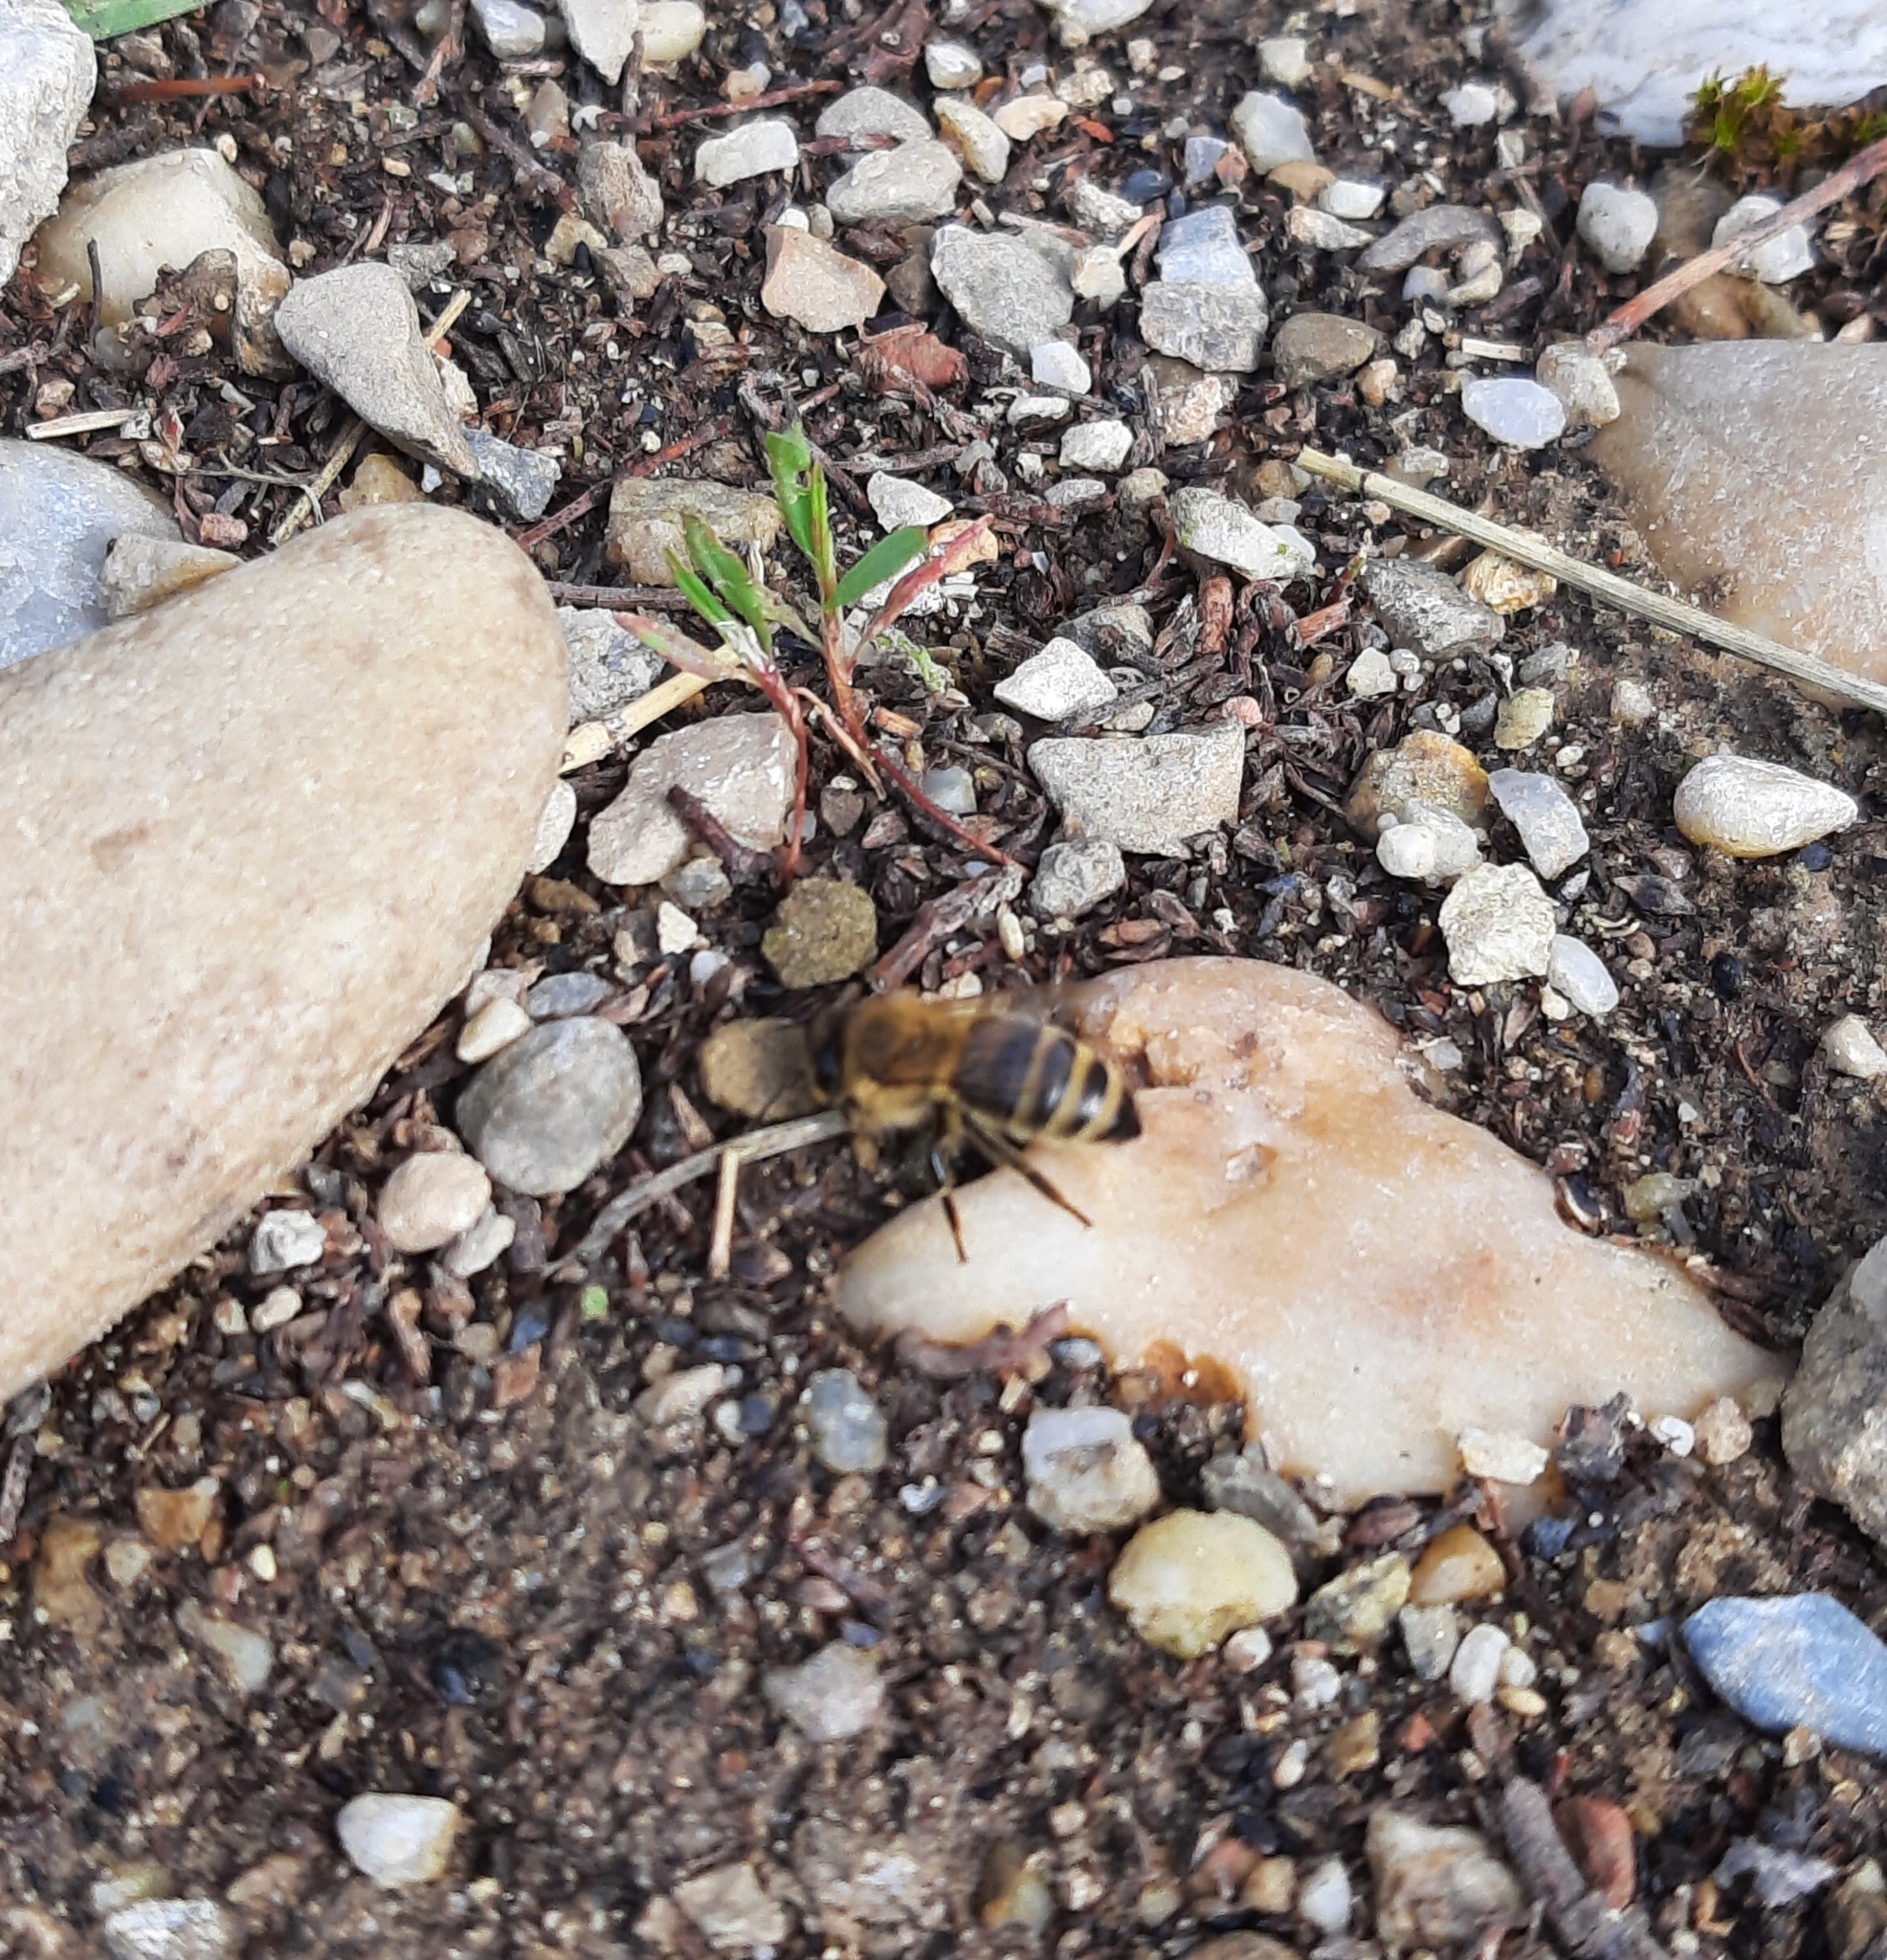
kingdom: Animalia
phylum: Arthropoda
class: Insecta
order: Hymenoptera
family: Apidae
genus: Apis
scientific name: Apis mellifera
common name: Honey bee
